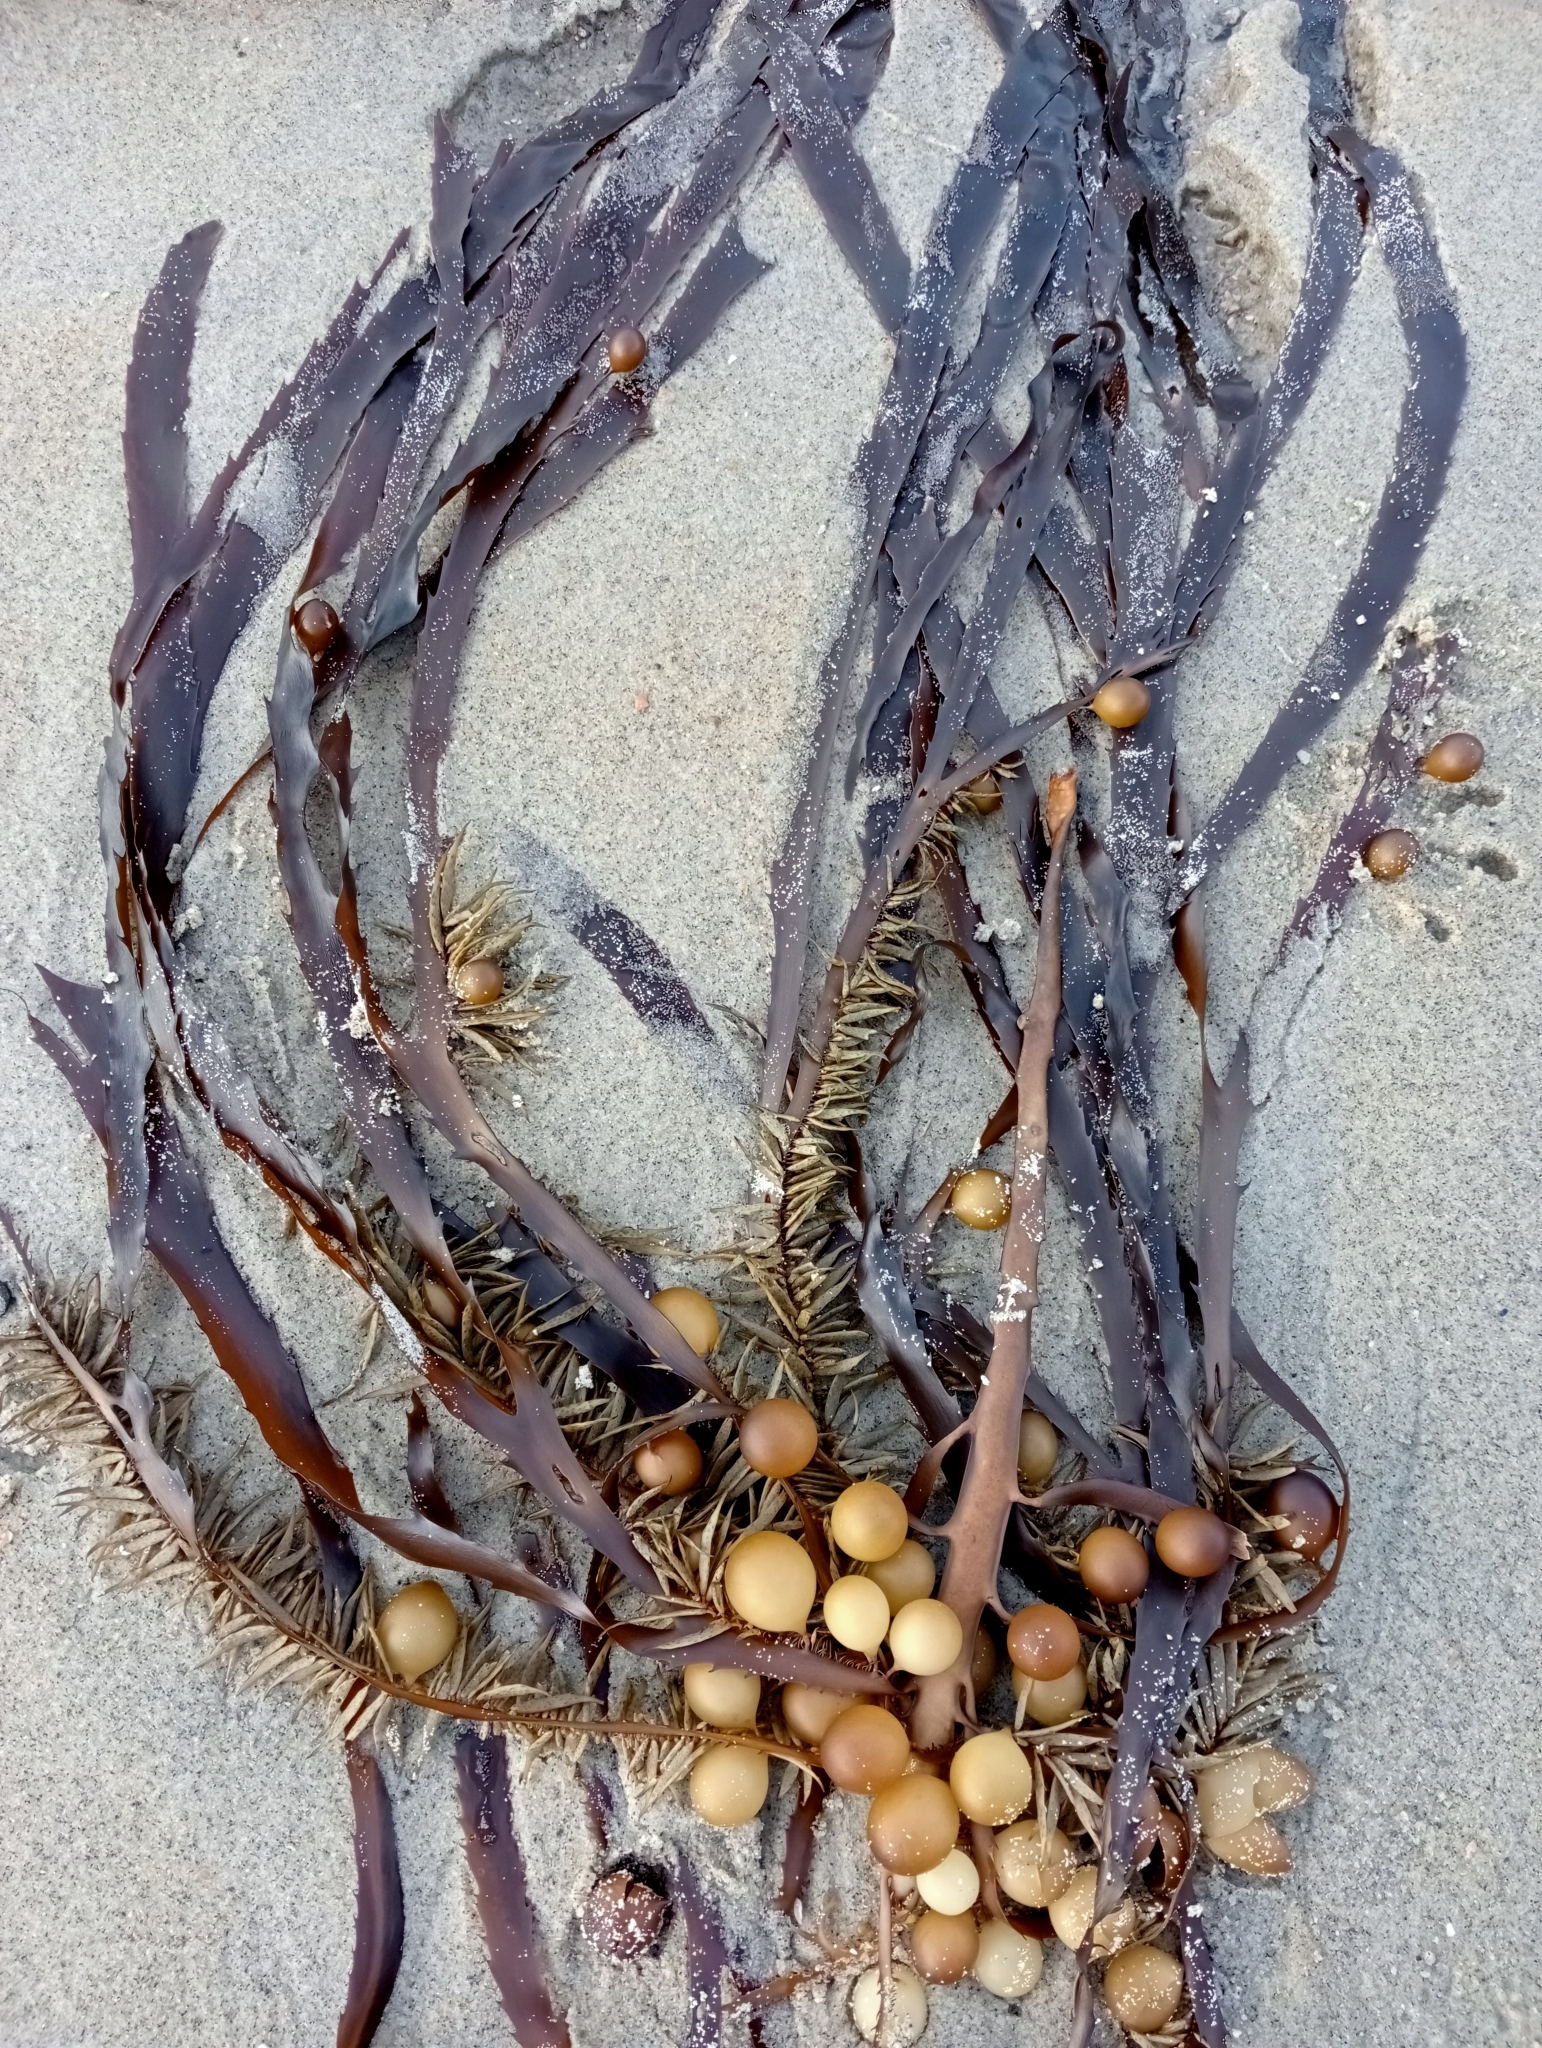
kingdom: Chromista
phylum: Ochrophyta
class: Phaeophyceae
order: Fucales
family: Seirococcaceae
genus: Marginariella
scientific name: Marginariella urvilliana
